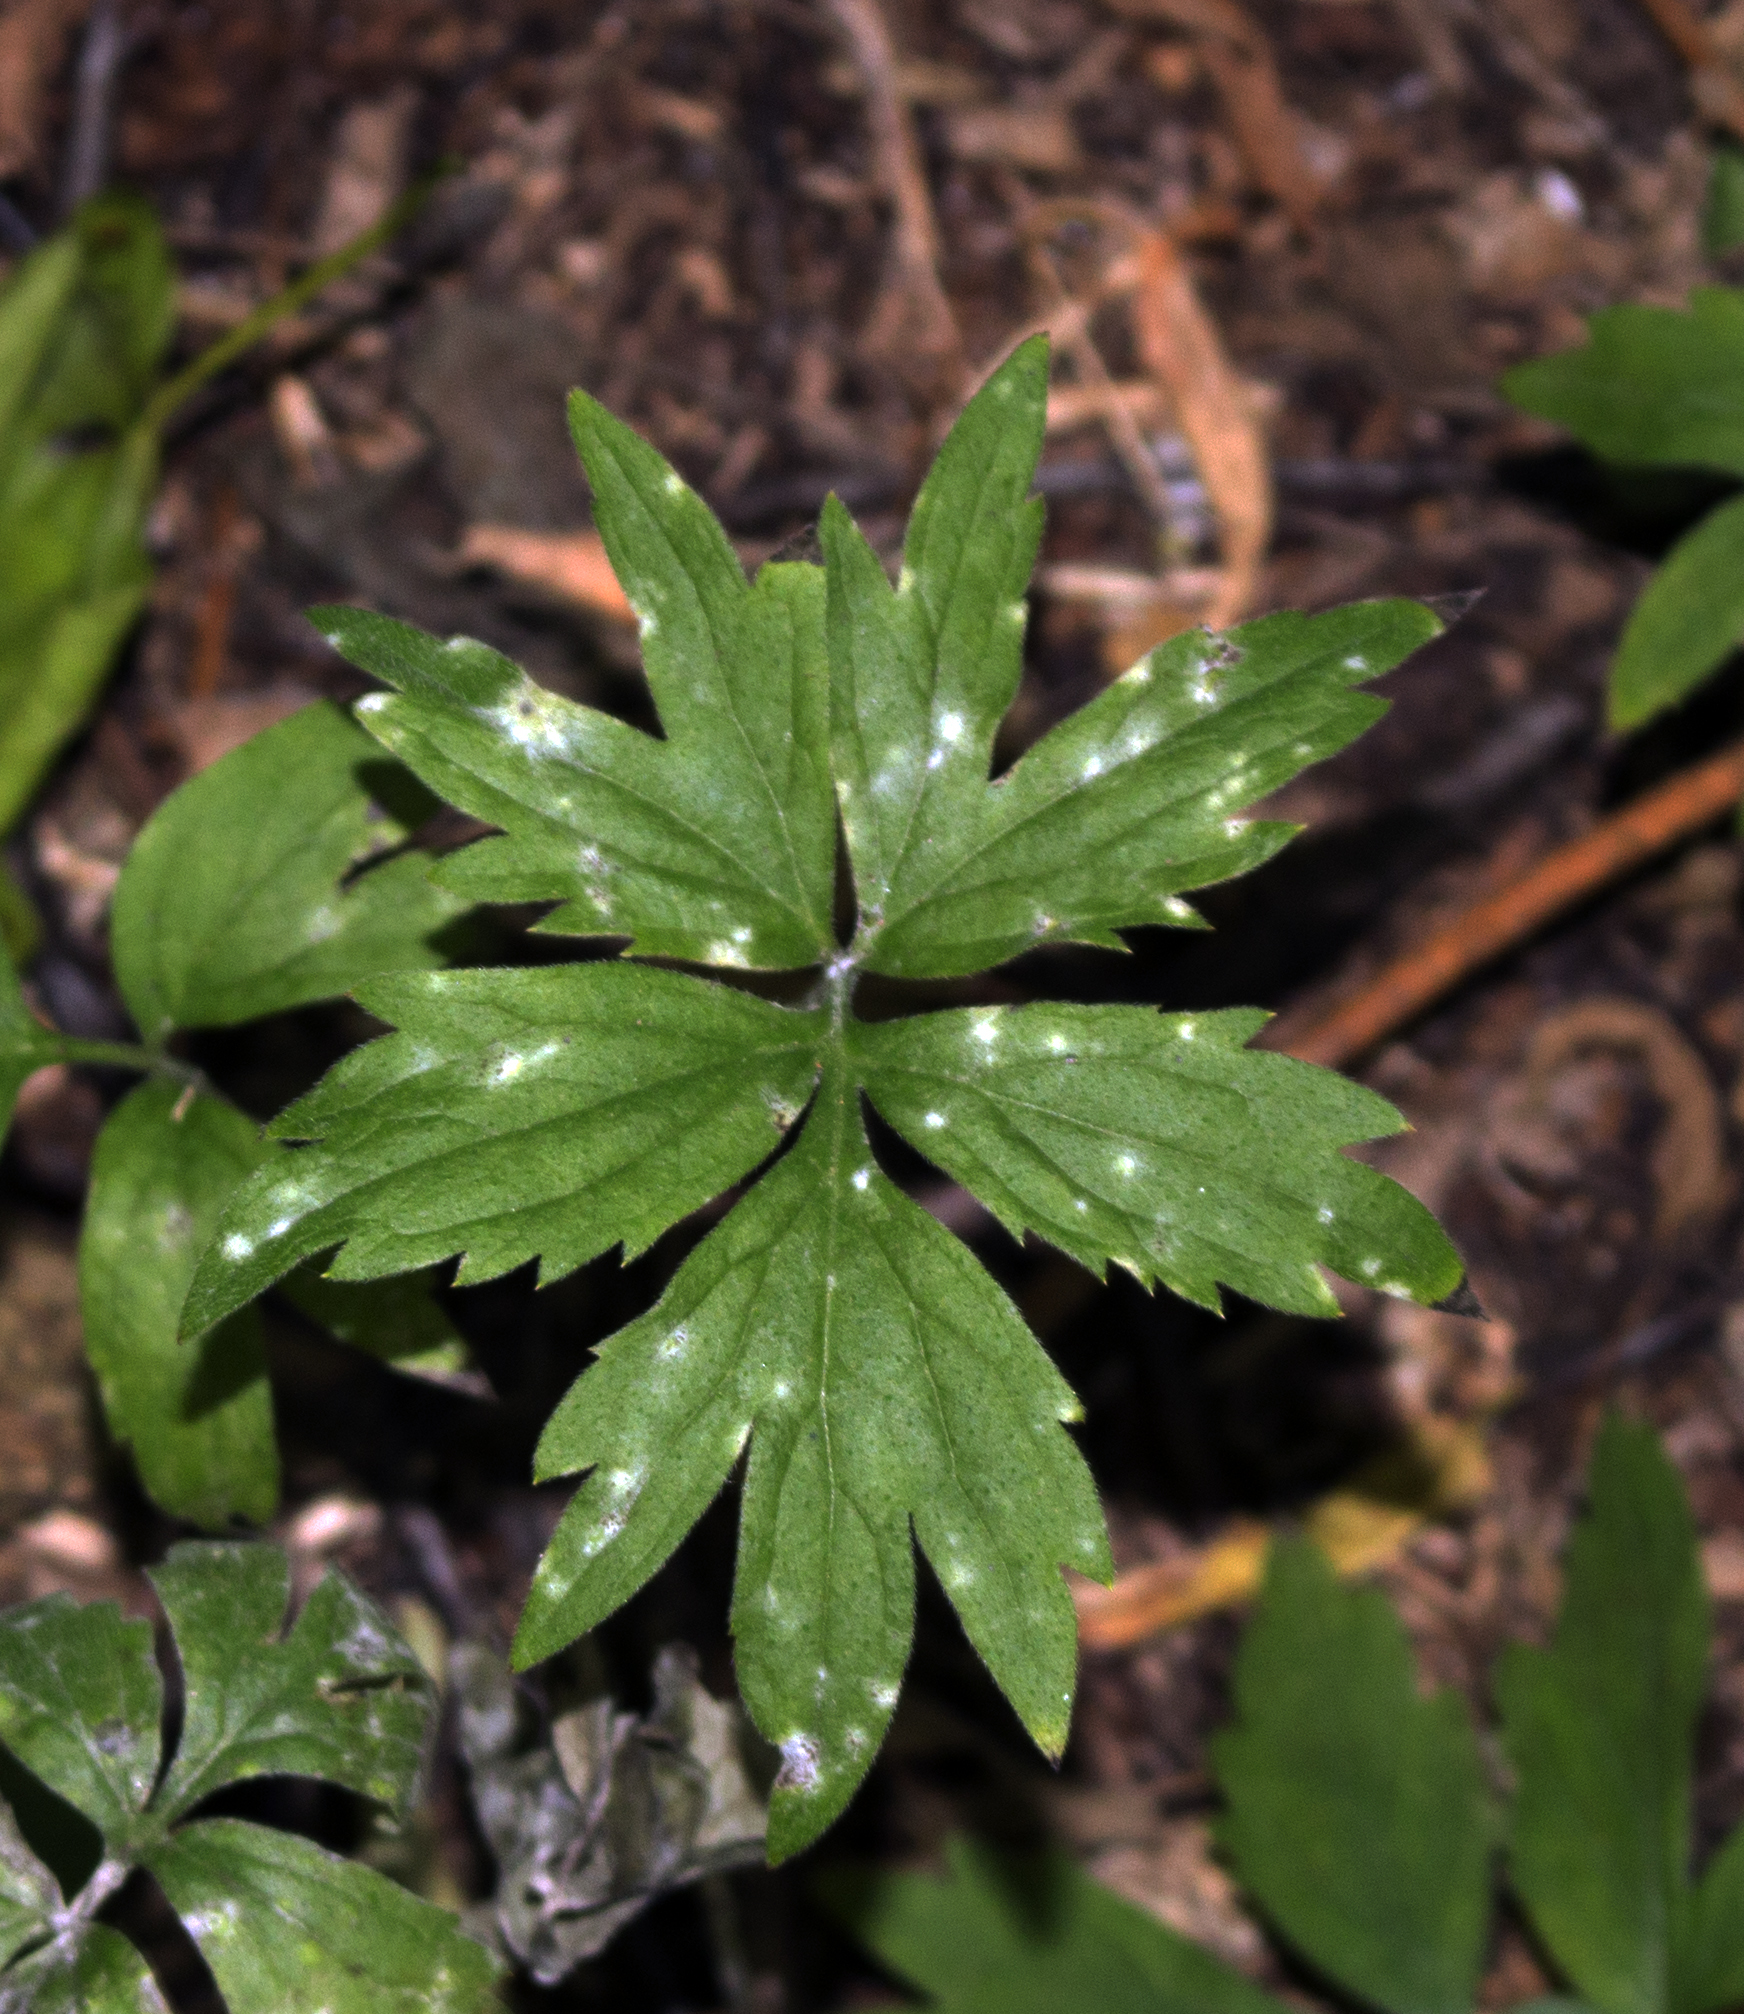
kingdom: Plantae
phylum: Tracheophyta
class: Magnoliopsida
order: Boraginales
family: Hydrophyllaceae
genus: Hydrophyllum
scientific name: Hydrophyllum virginianum
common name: Virginia waterleaf
